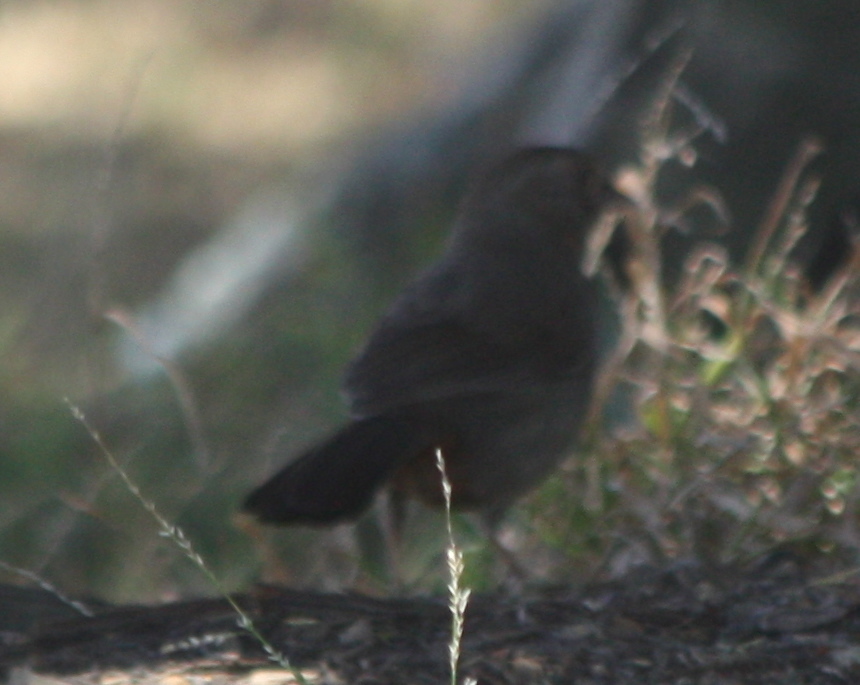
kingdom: Animalia
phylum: Chordata
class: Aves
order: Passeriformes
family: Passerellidae
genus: Melozone
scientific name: Melozone crissalis
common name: California towhee
